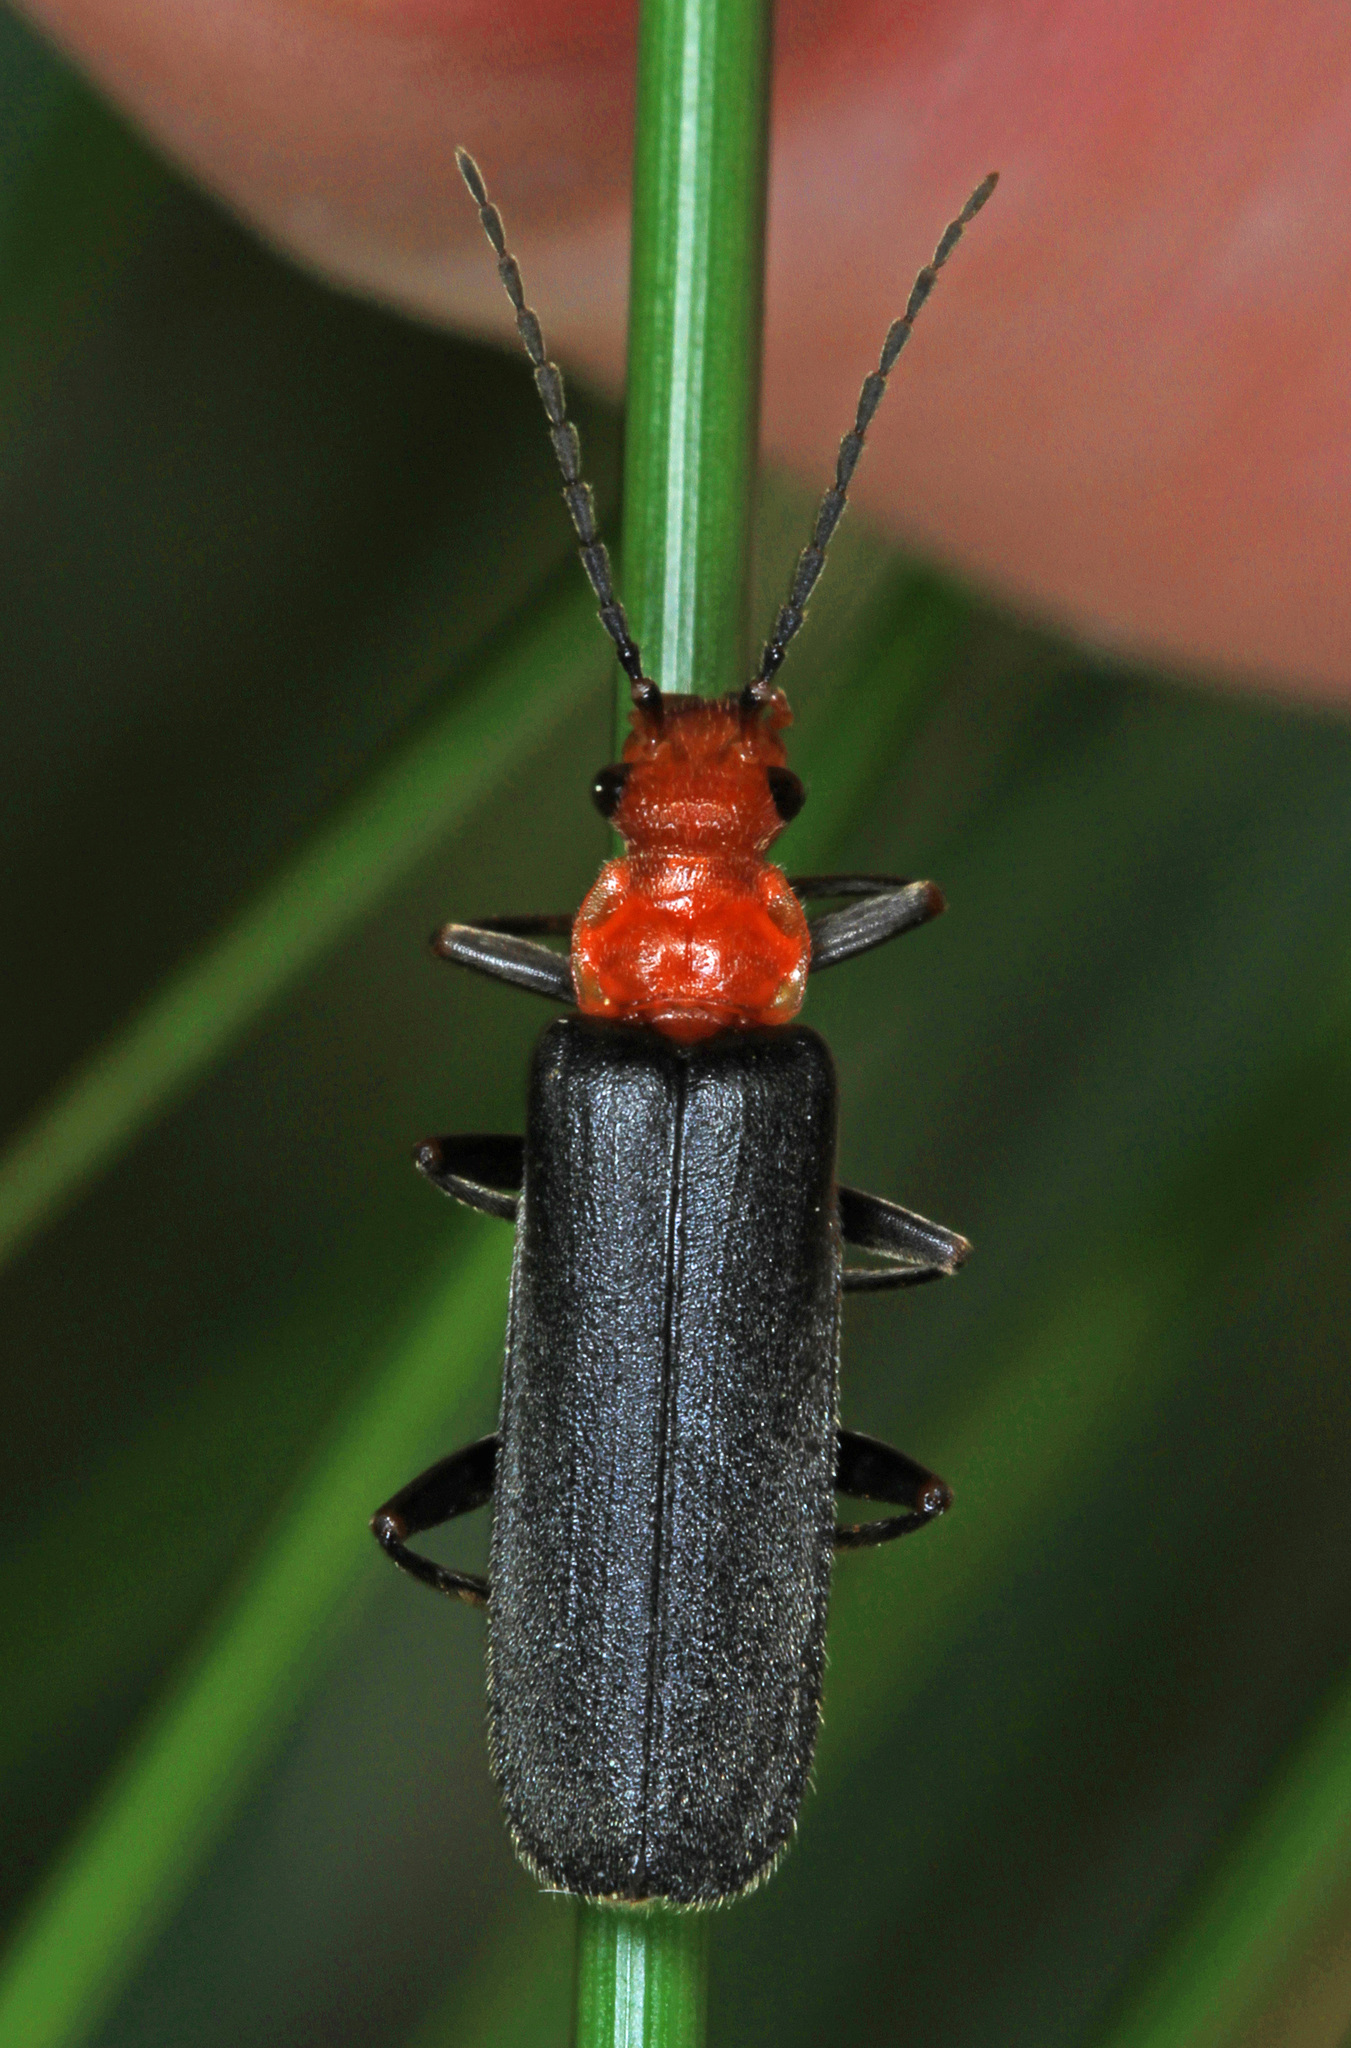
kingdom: Animalia
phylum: Arthropoda
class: Insecta
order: Coleoptera
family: Cantharidae
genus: Podabrus
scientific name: Podabrus pruinosus
